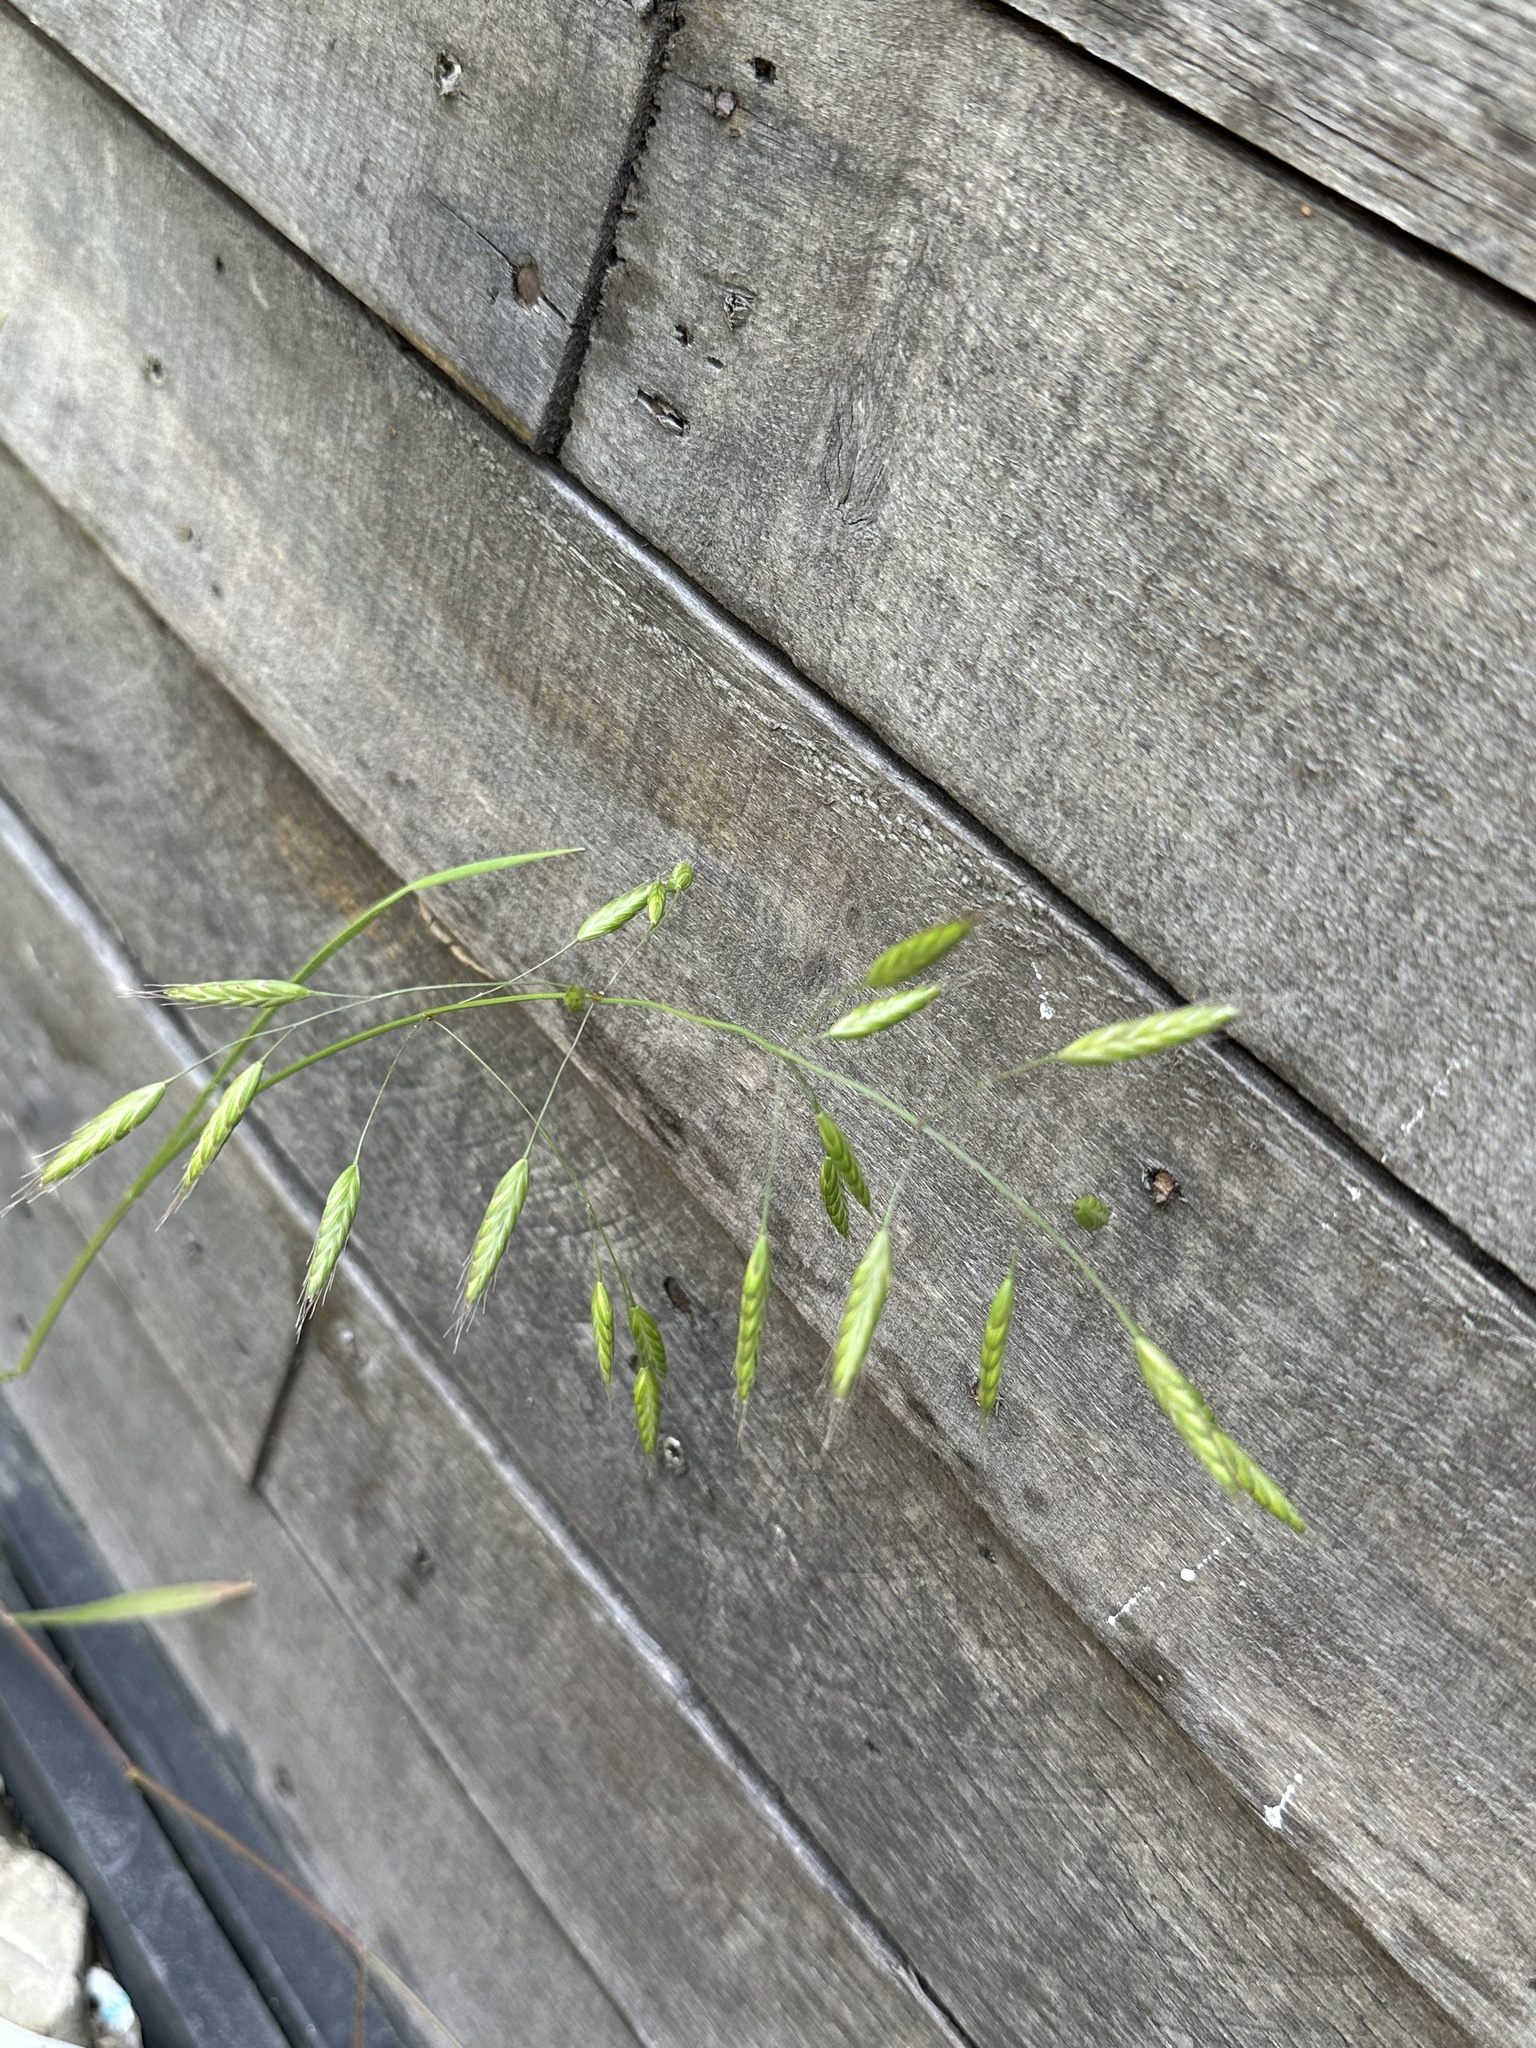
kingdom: Plantae
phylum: Tracheophyta
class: Liliopsida
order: Poales
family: Poaceae
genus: Bromus
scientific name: Bromus japonicus
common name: Japanese brome
